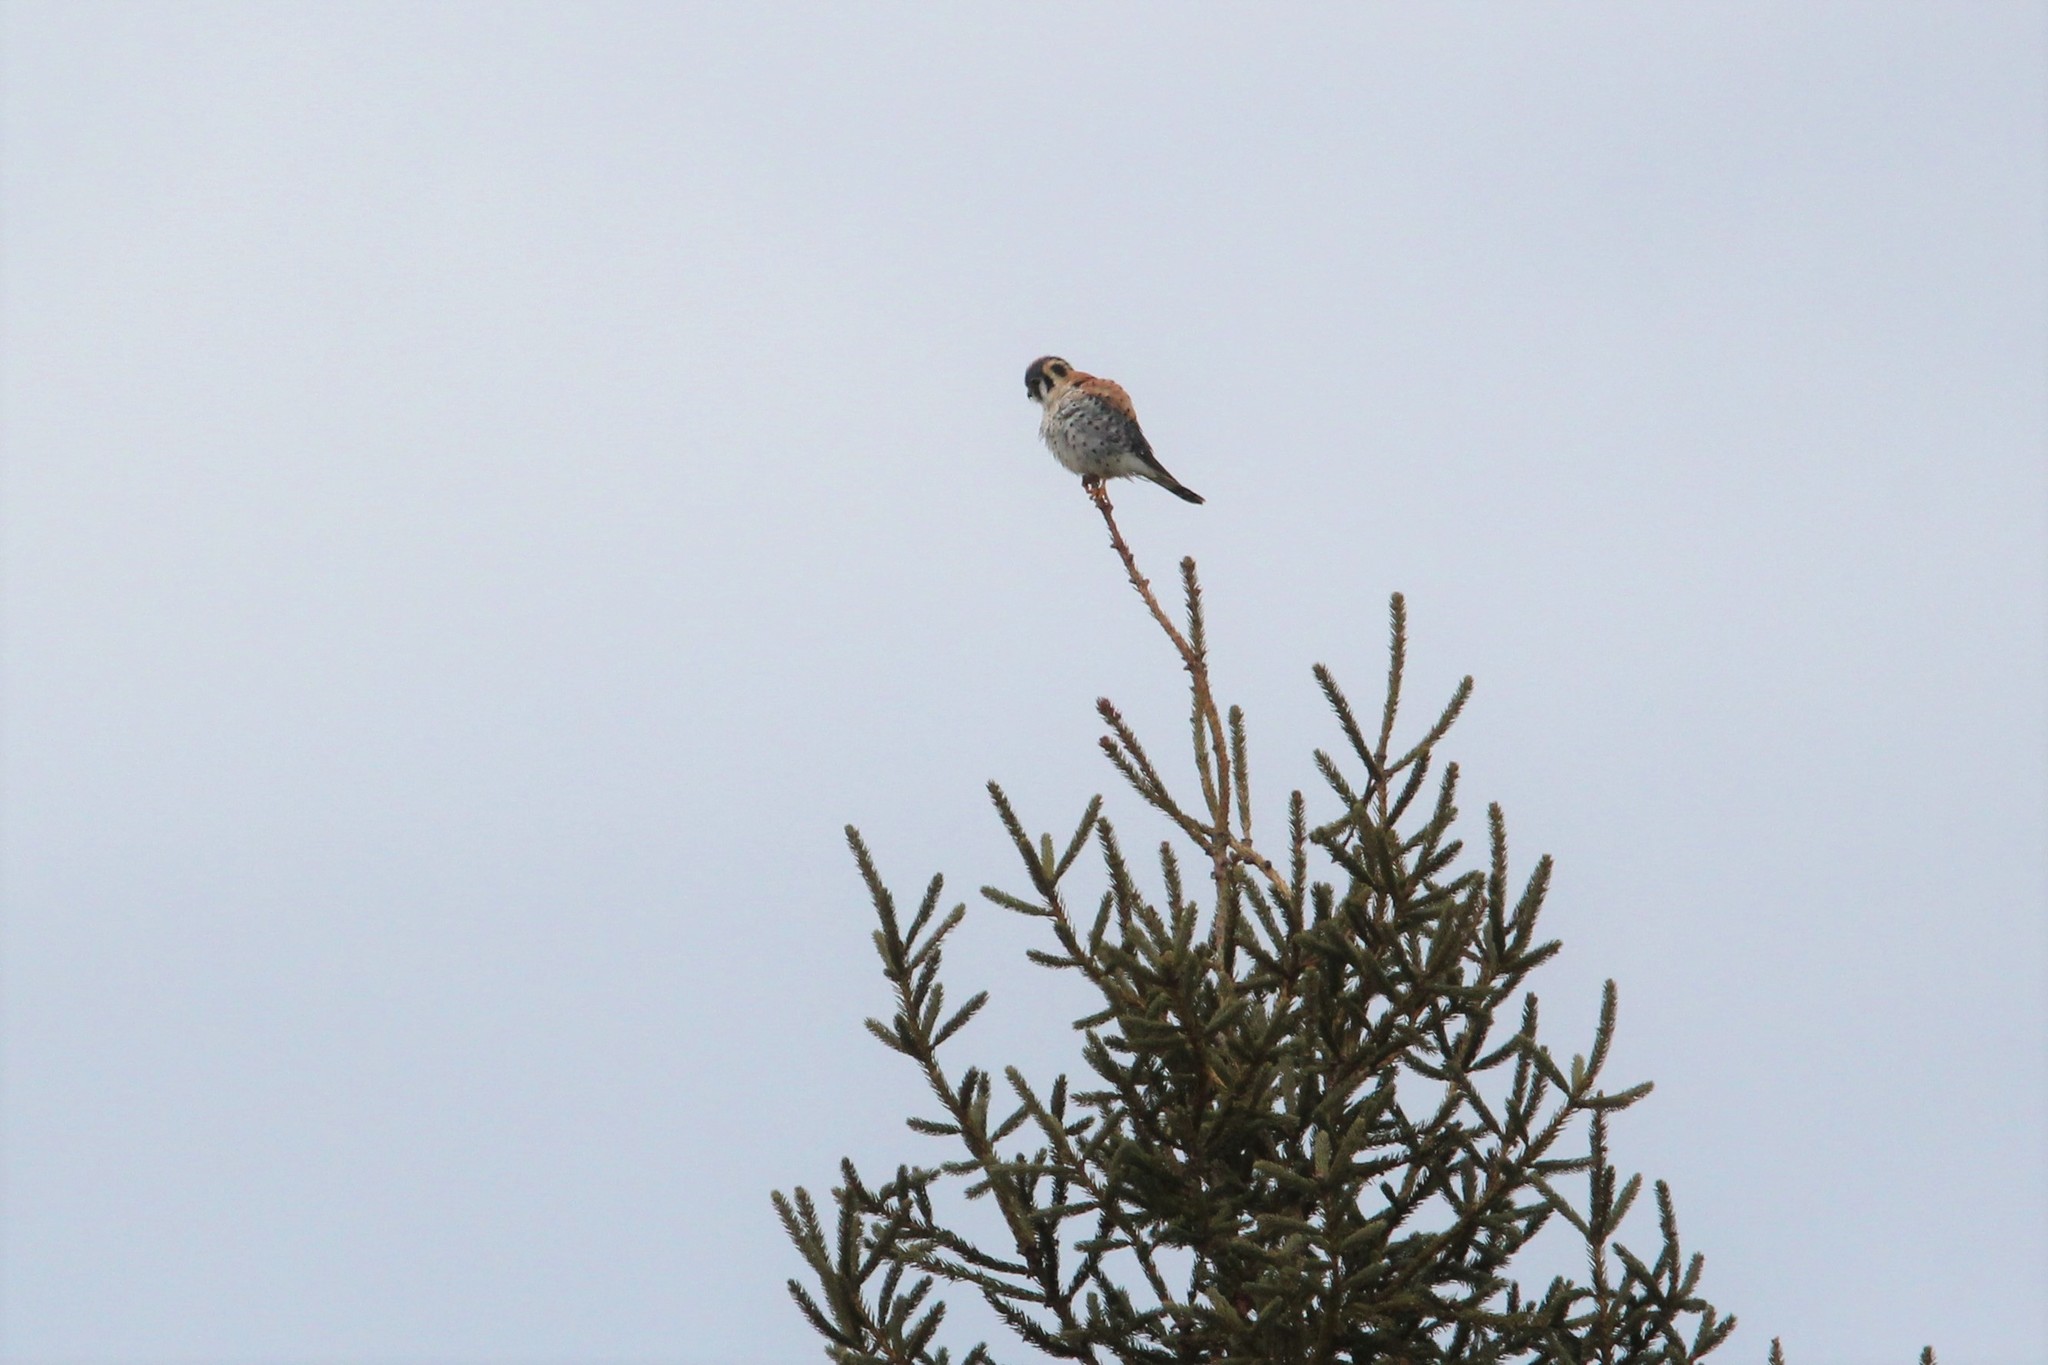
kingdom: Animalia
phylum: Chordata
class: Aves
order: Falconiformes
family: Falconidae
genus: Falco
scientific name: Falco sparverius
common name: American kestrel
